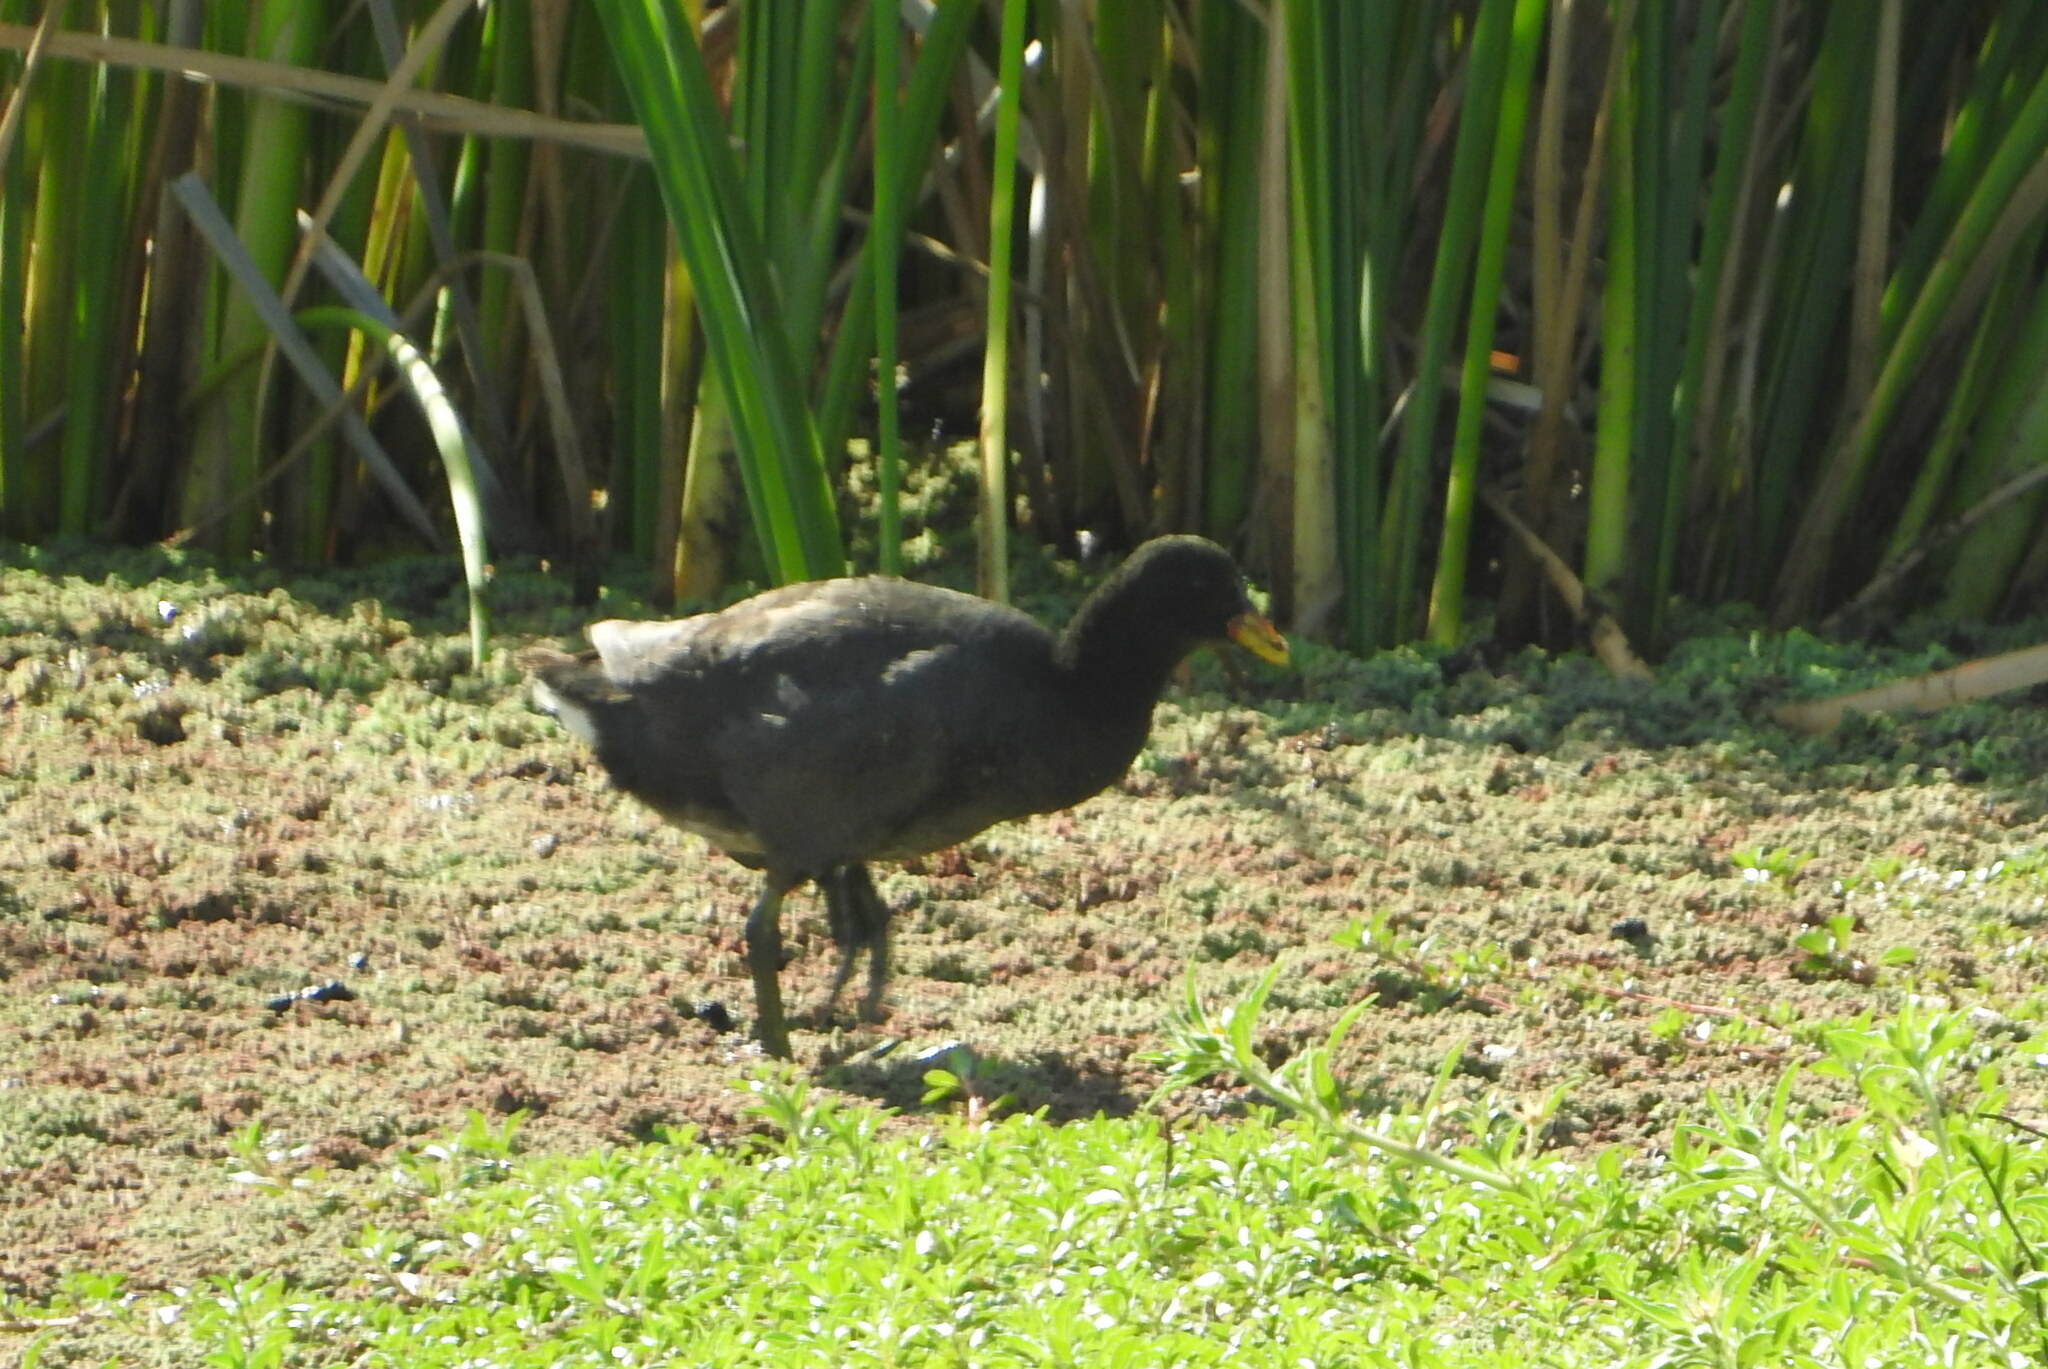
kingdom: Animalia
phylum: Chordata
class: Aves
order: Gruiformes
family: Rallidae
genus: Fulica
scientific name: Fulica rufifrons
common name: Red-fronted coot
